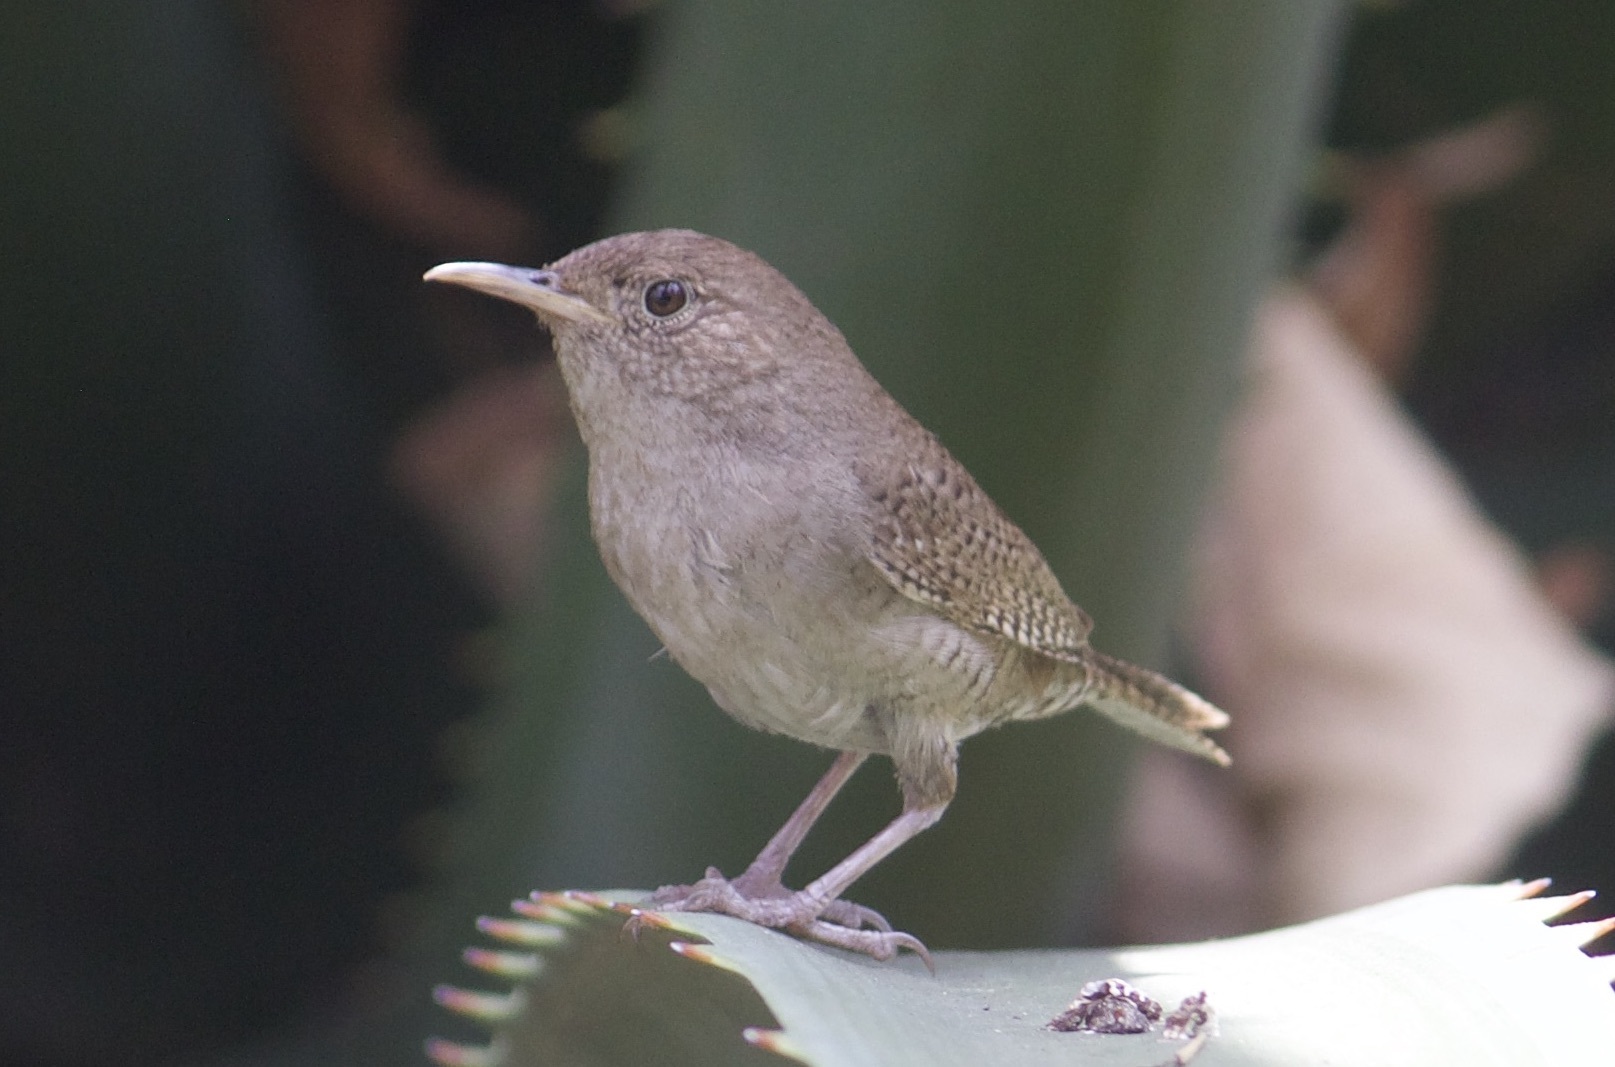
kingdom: Animalia
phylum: Chordata
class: Aves
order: Passeriformes
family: Troglodytidae
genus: Troglodytes
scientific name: Troglodytes aedon
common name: House wren
